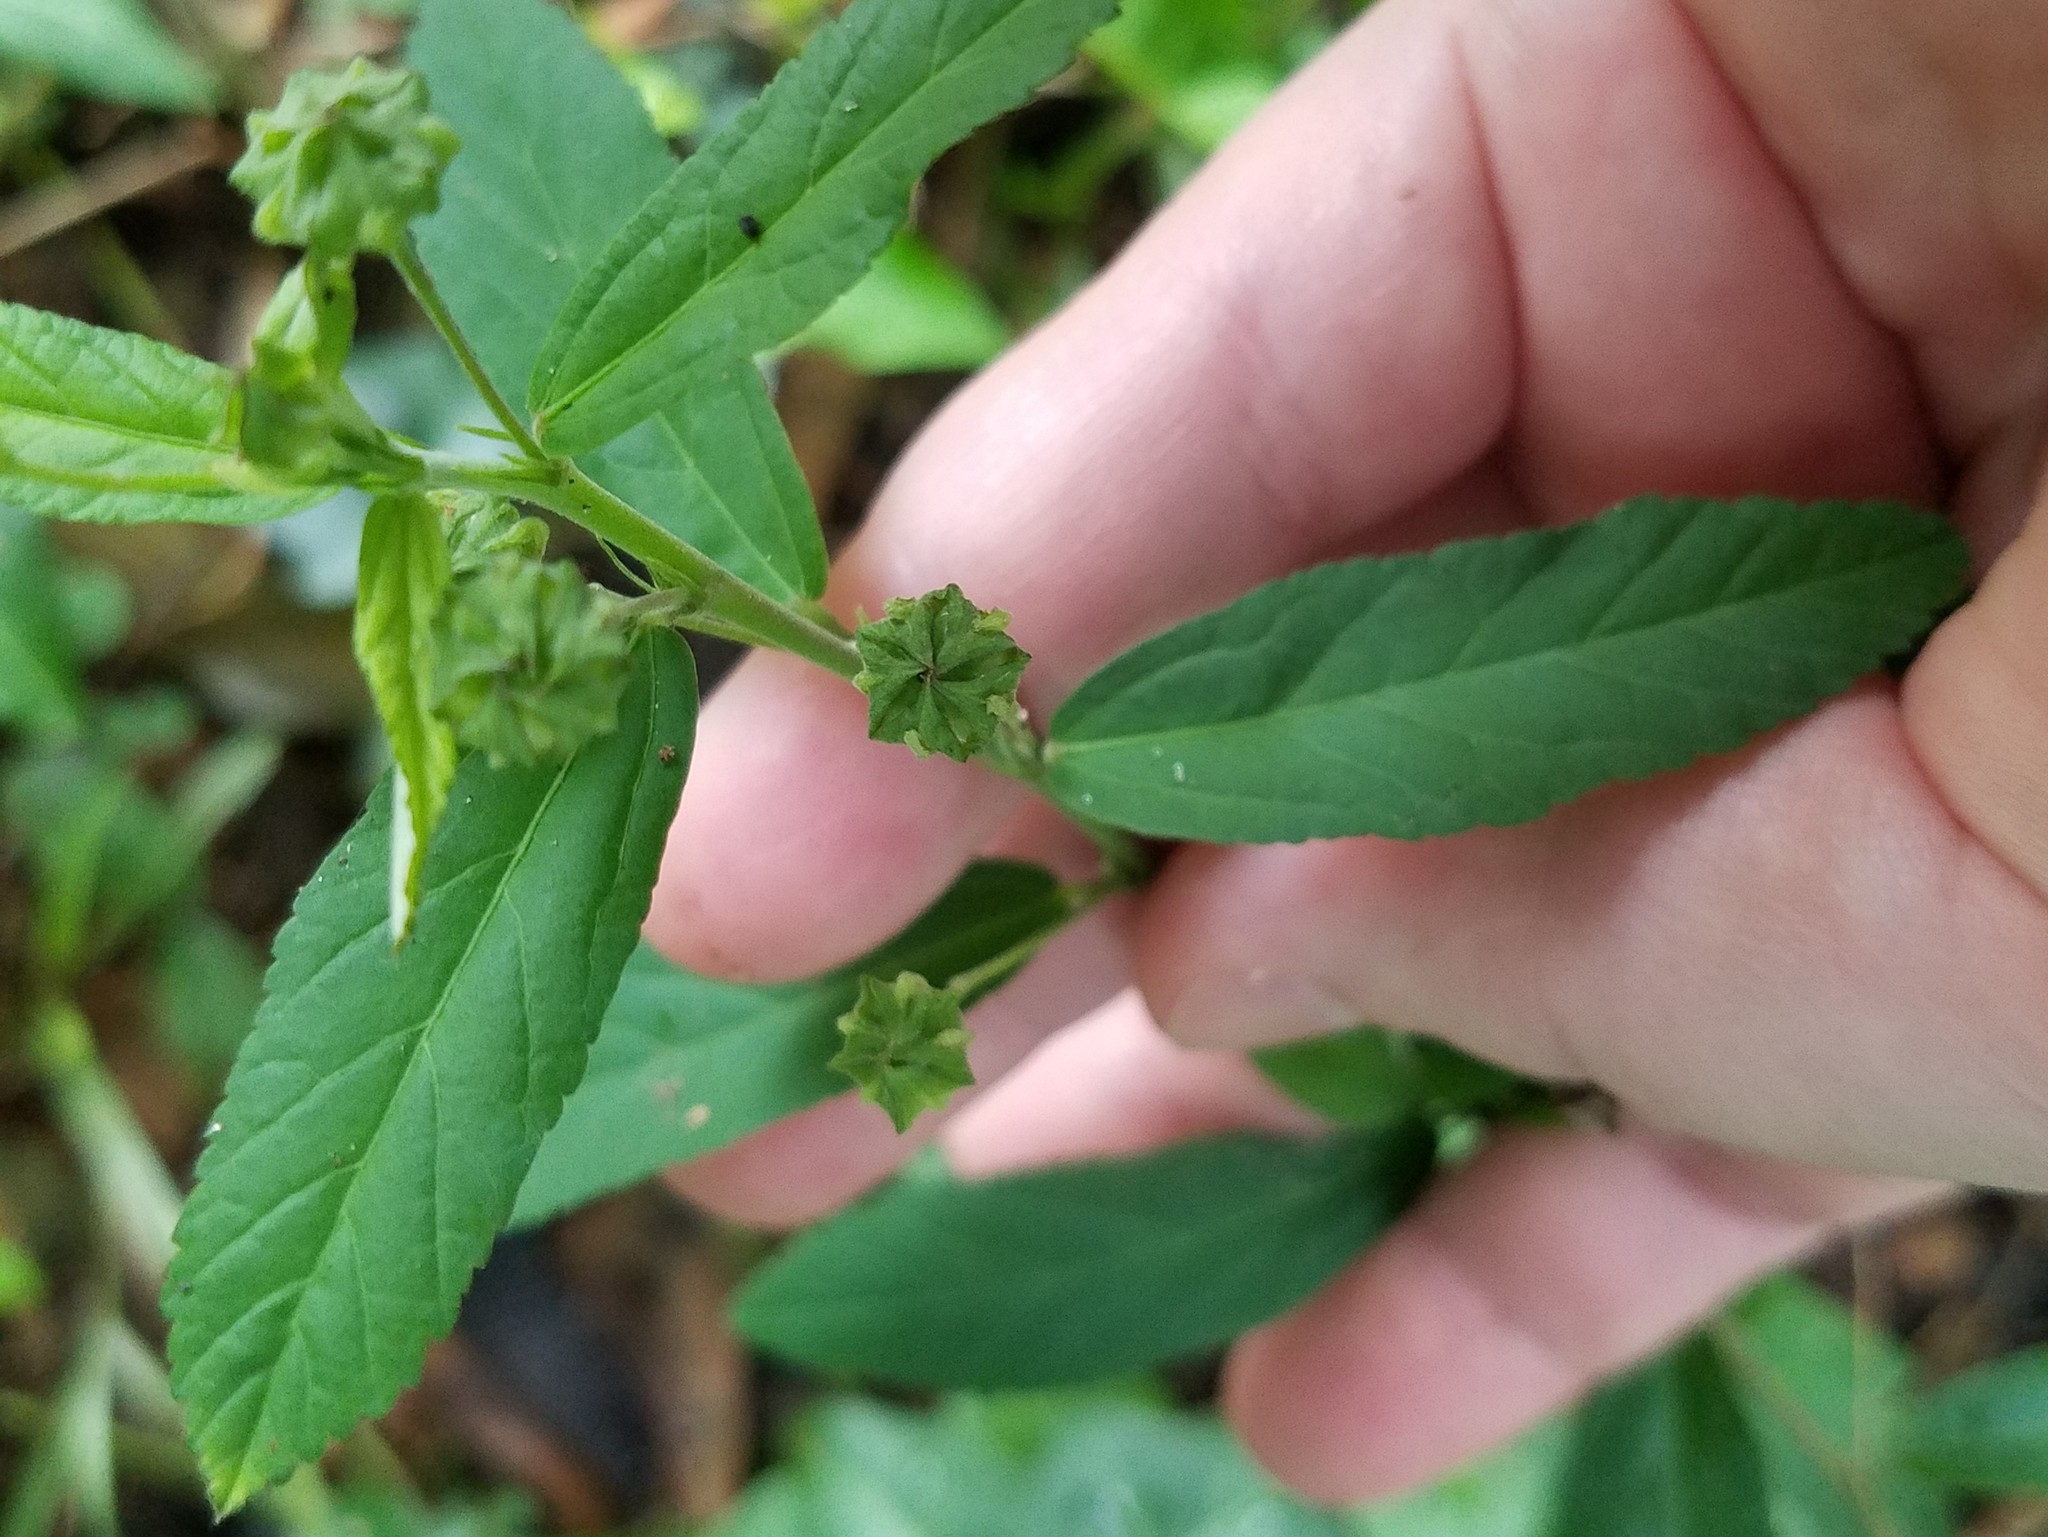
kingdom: Plantae
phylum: Tracheophyta
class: Magnoliopsida
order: Malvales
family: Malvaceae
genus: Sida
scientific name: Sida rhombifolia
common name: Queensland-hemp
